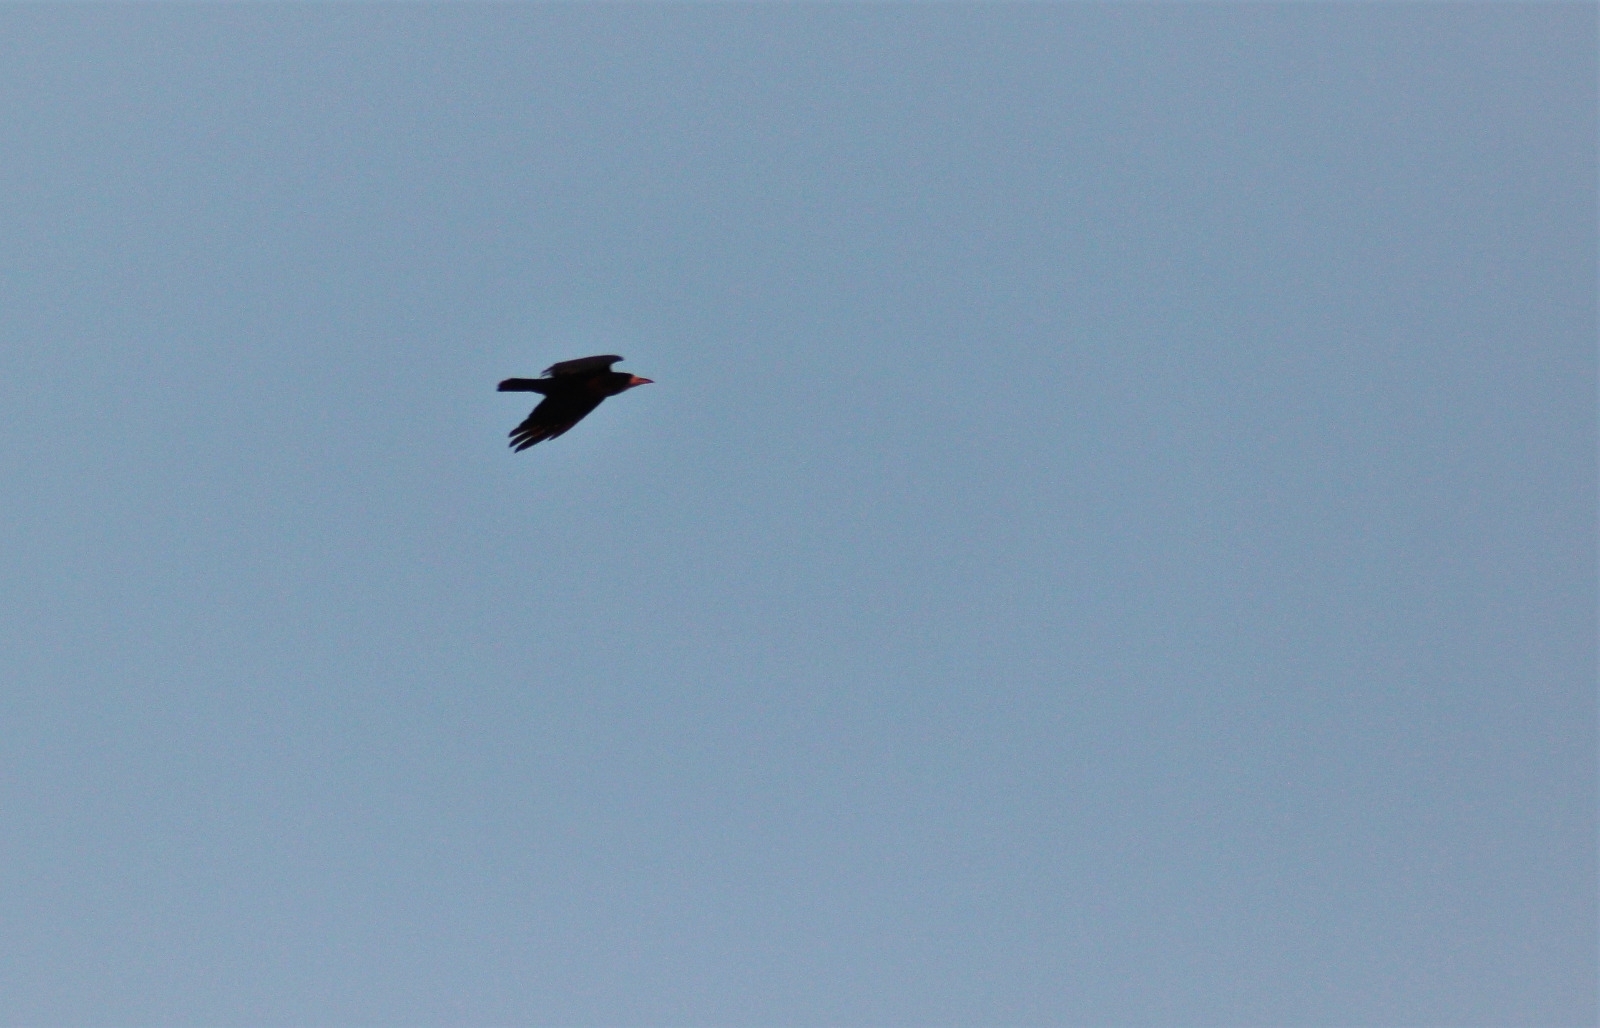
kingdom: Animalia
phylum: Chordata
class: Aves
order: Passeriformes
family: Corvidae
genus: Corvus
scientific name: Corvus frugilegus
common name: Rook
